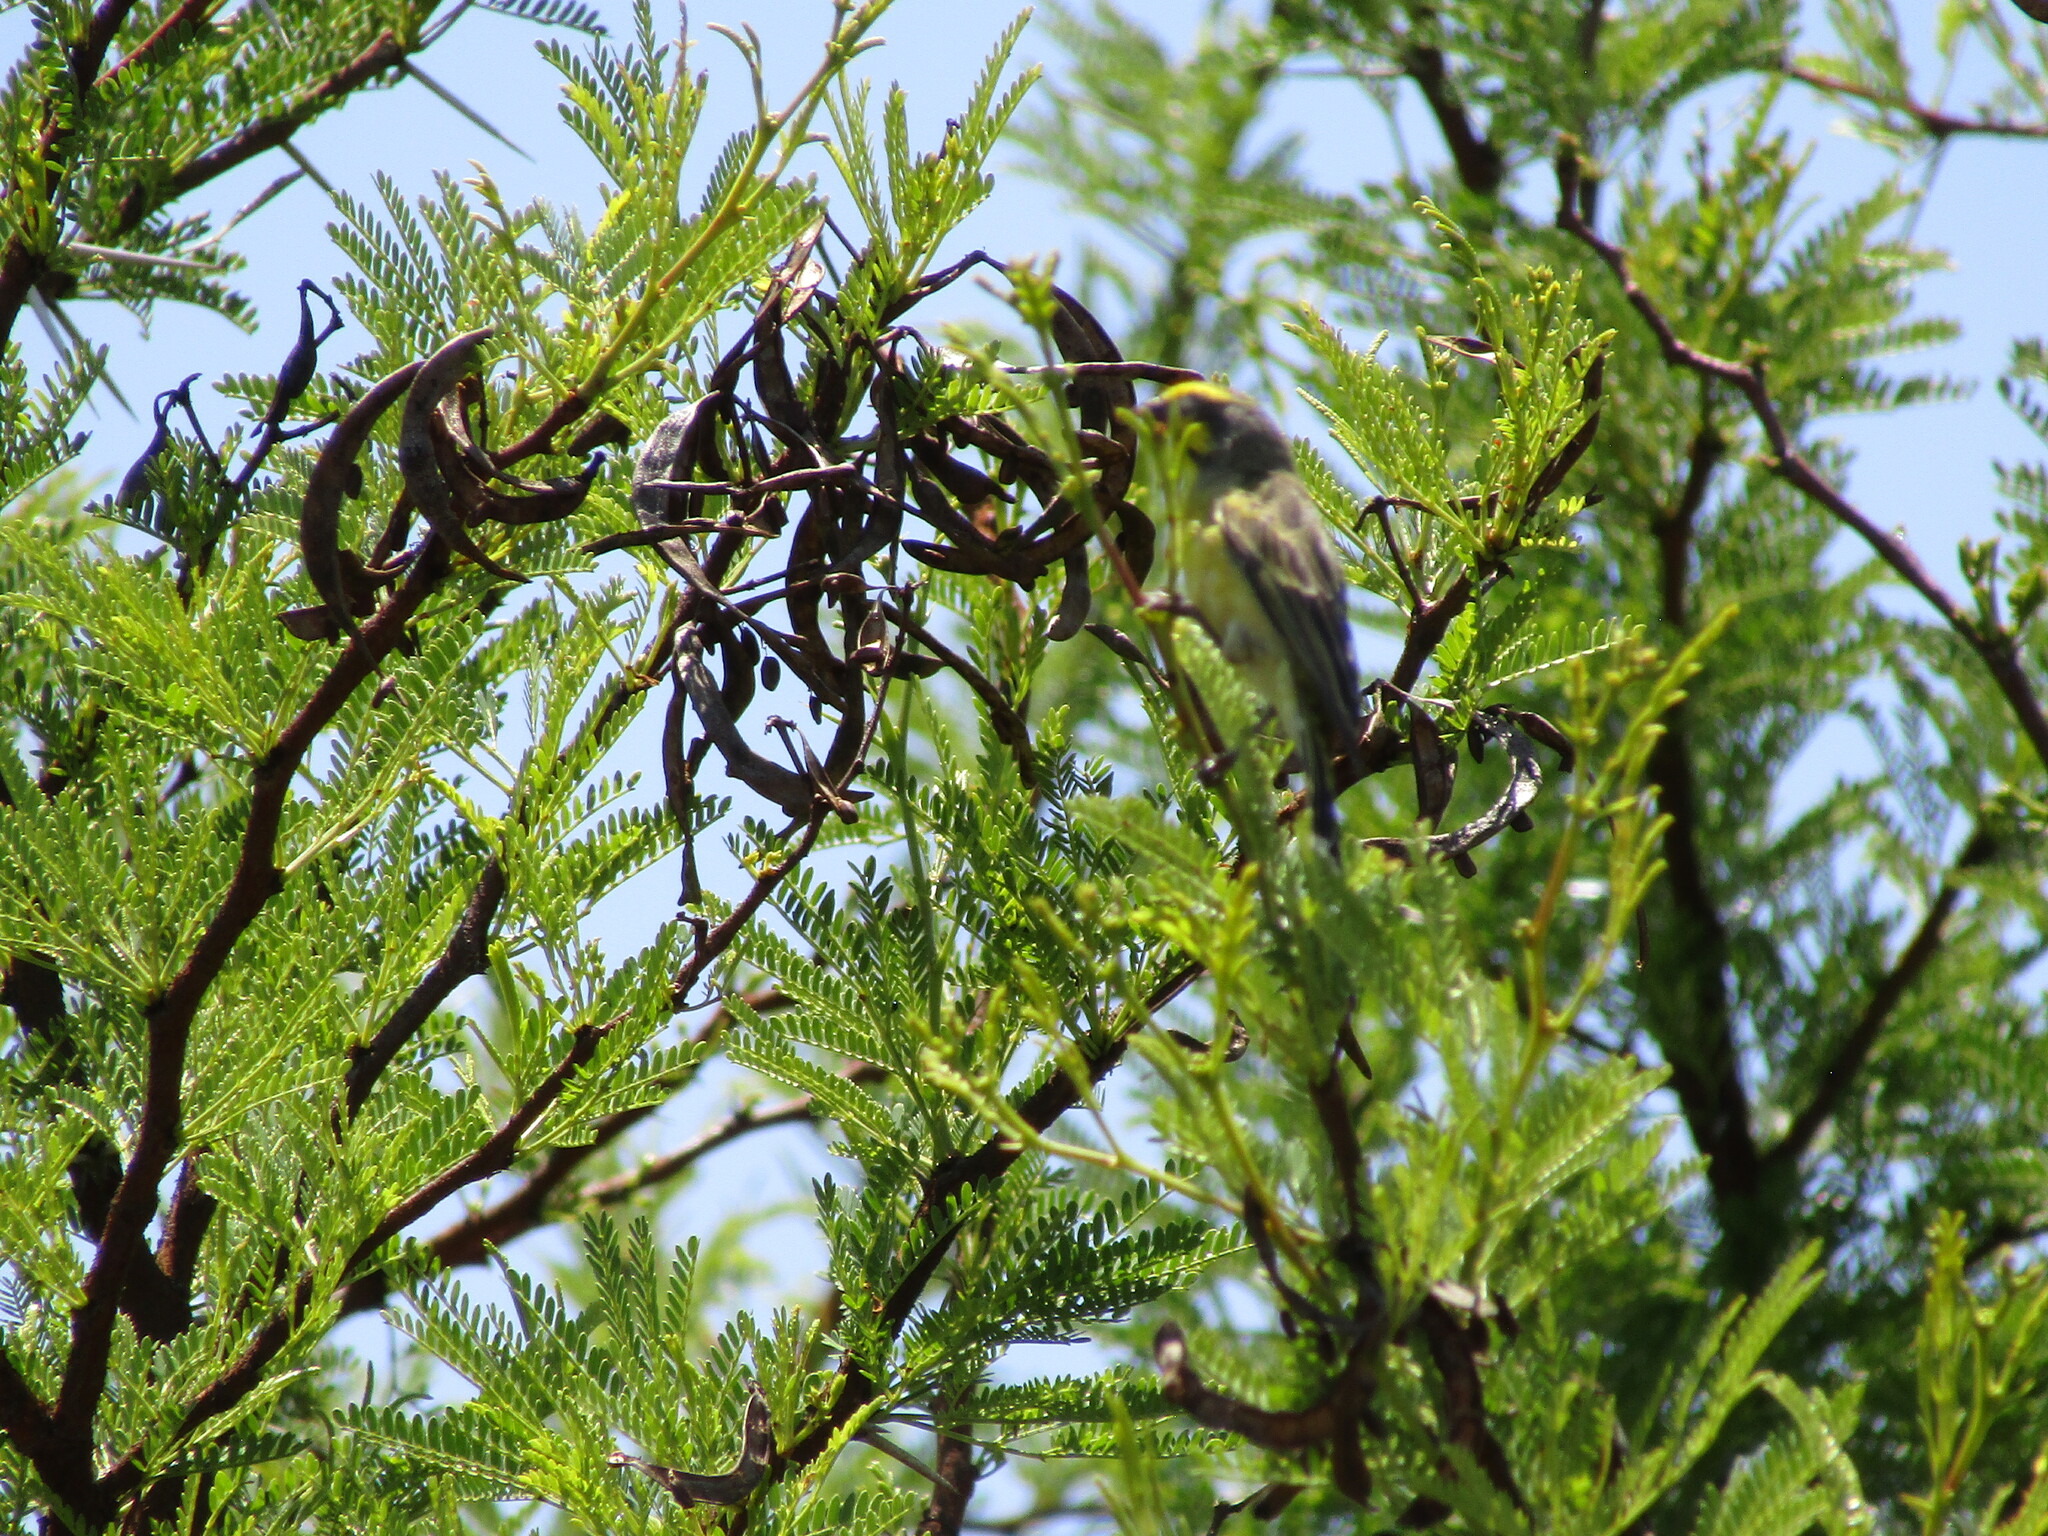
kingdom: Animalia
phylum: Chordata
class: Aves
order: Passeriformes
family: Fringillidae
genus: Crithagra
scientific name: Crithagra mozambica
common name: Yellow-fronted canary
